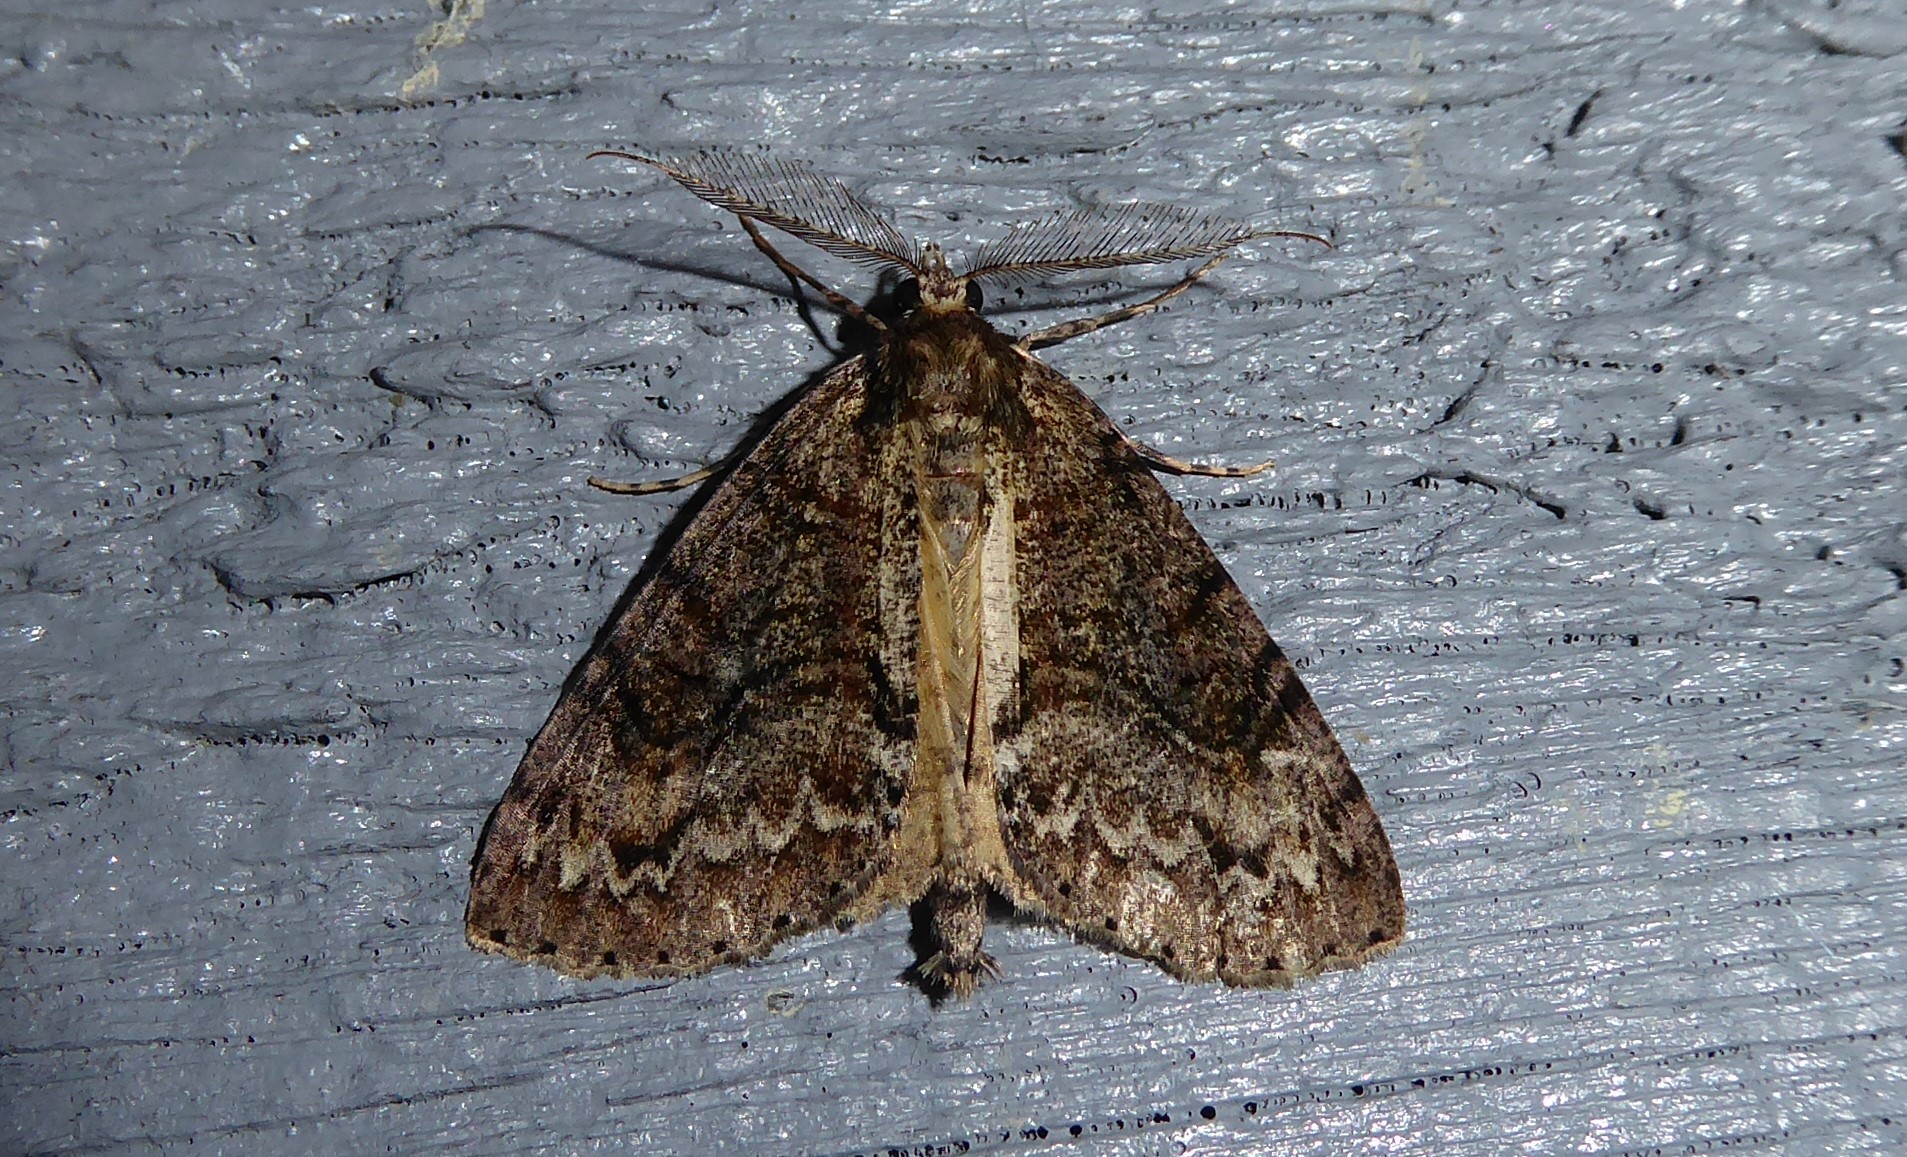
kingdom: Animalia
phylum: Arthropoda
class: Insecta
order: Lepidoptera
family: Geometridae
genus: Pseudocoremia
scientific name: Pseudocoremia suavis
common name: Common forest looper
